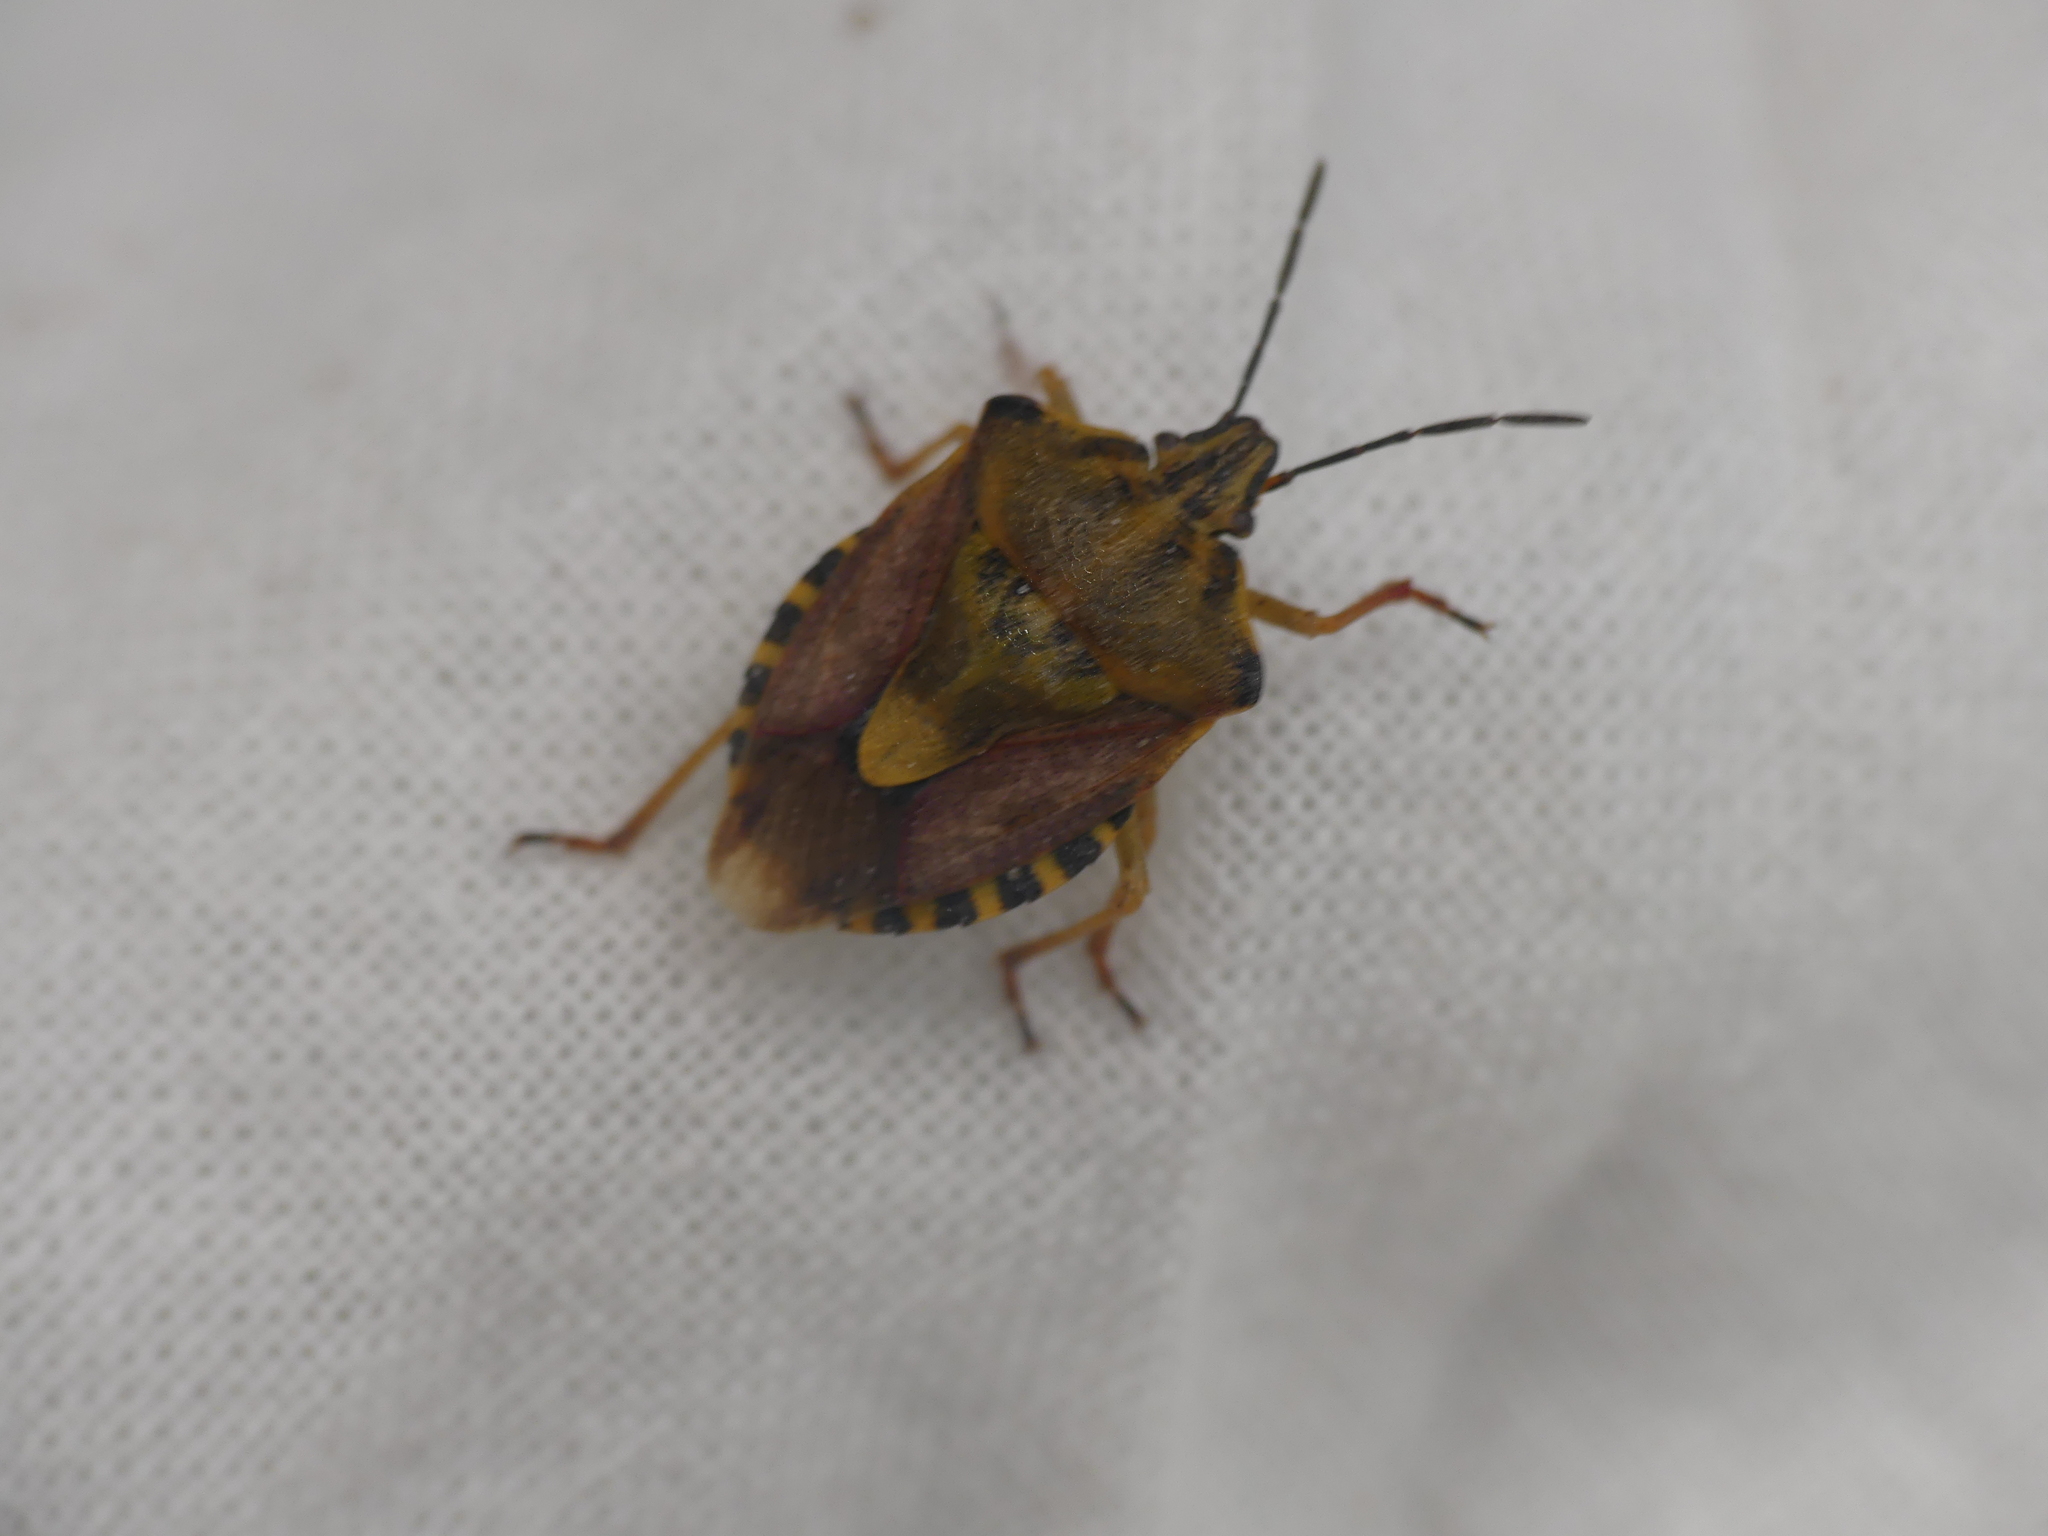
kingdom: Animalia
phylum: Arthropoda
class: Insecta
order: Hemiptera
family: Pentatomidae
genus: Carpocoris
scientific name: Carpocoris purpureipennis
